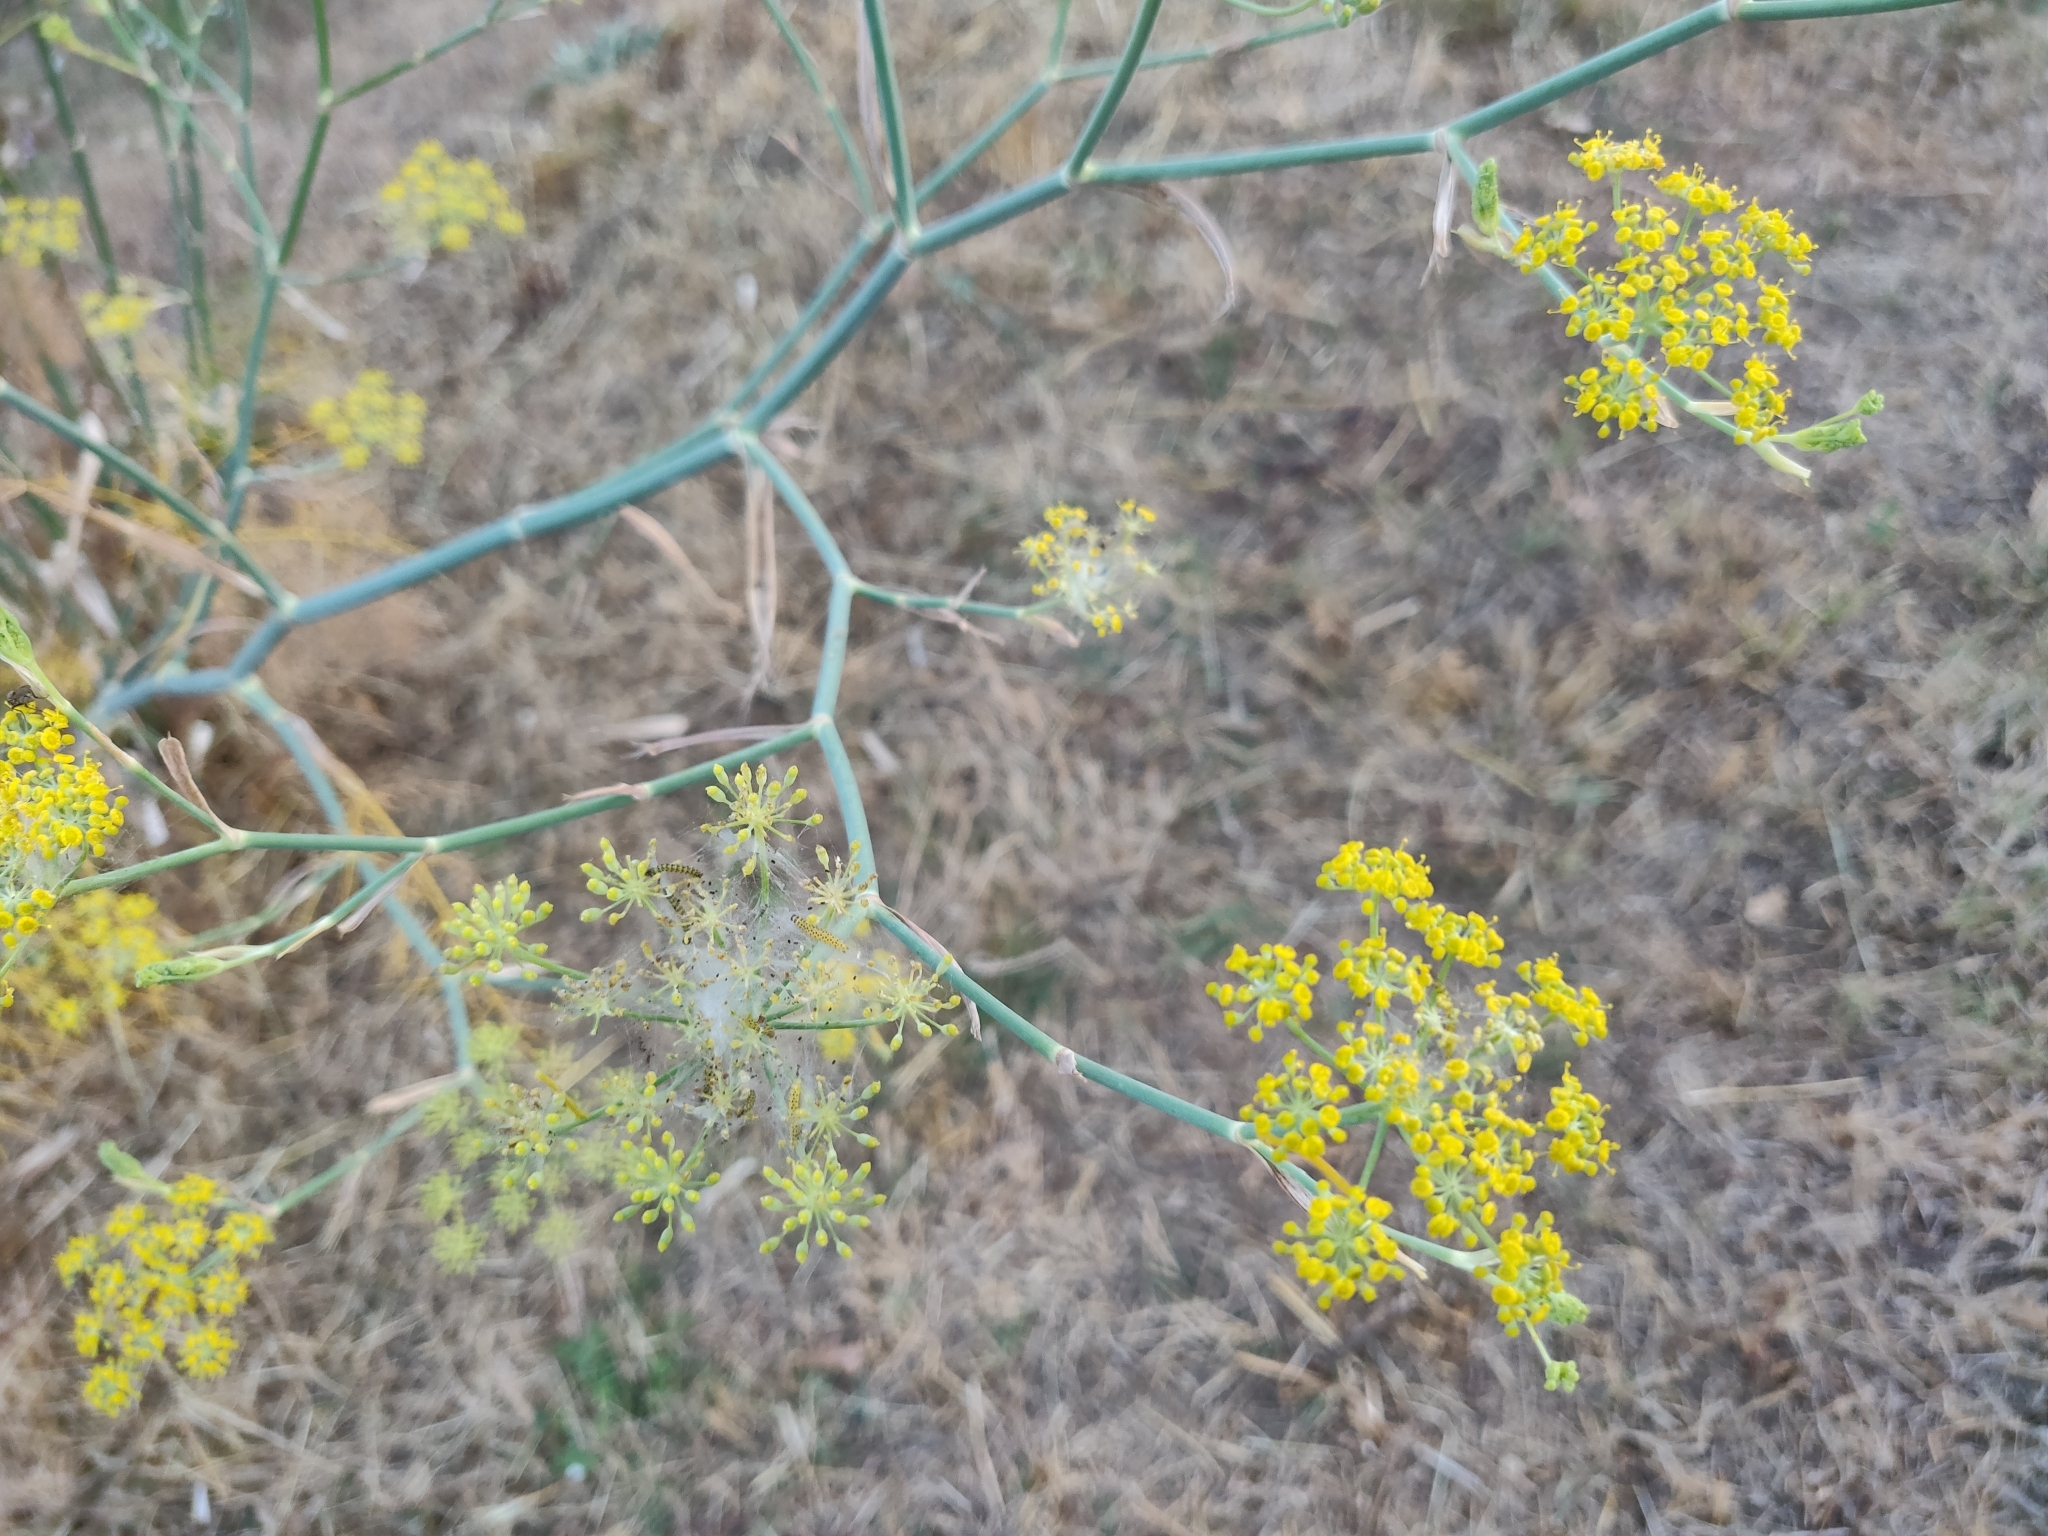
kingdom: Plantae
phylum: Tracheophyta
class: Magnoliopsida
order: Apiales
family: Apiaceae
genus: Foeniculum
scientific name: Foeniculum vulgare
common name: Fennel
